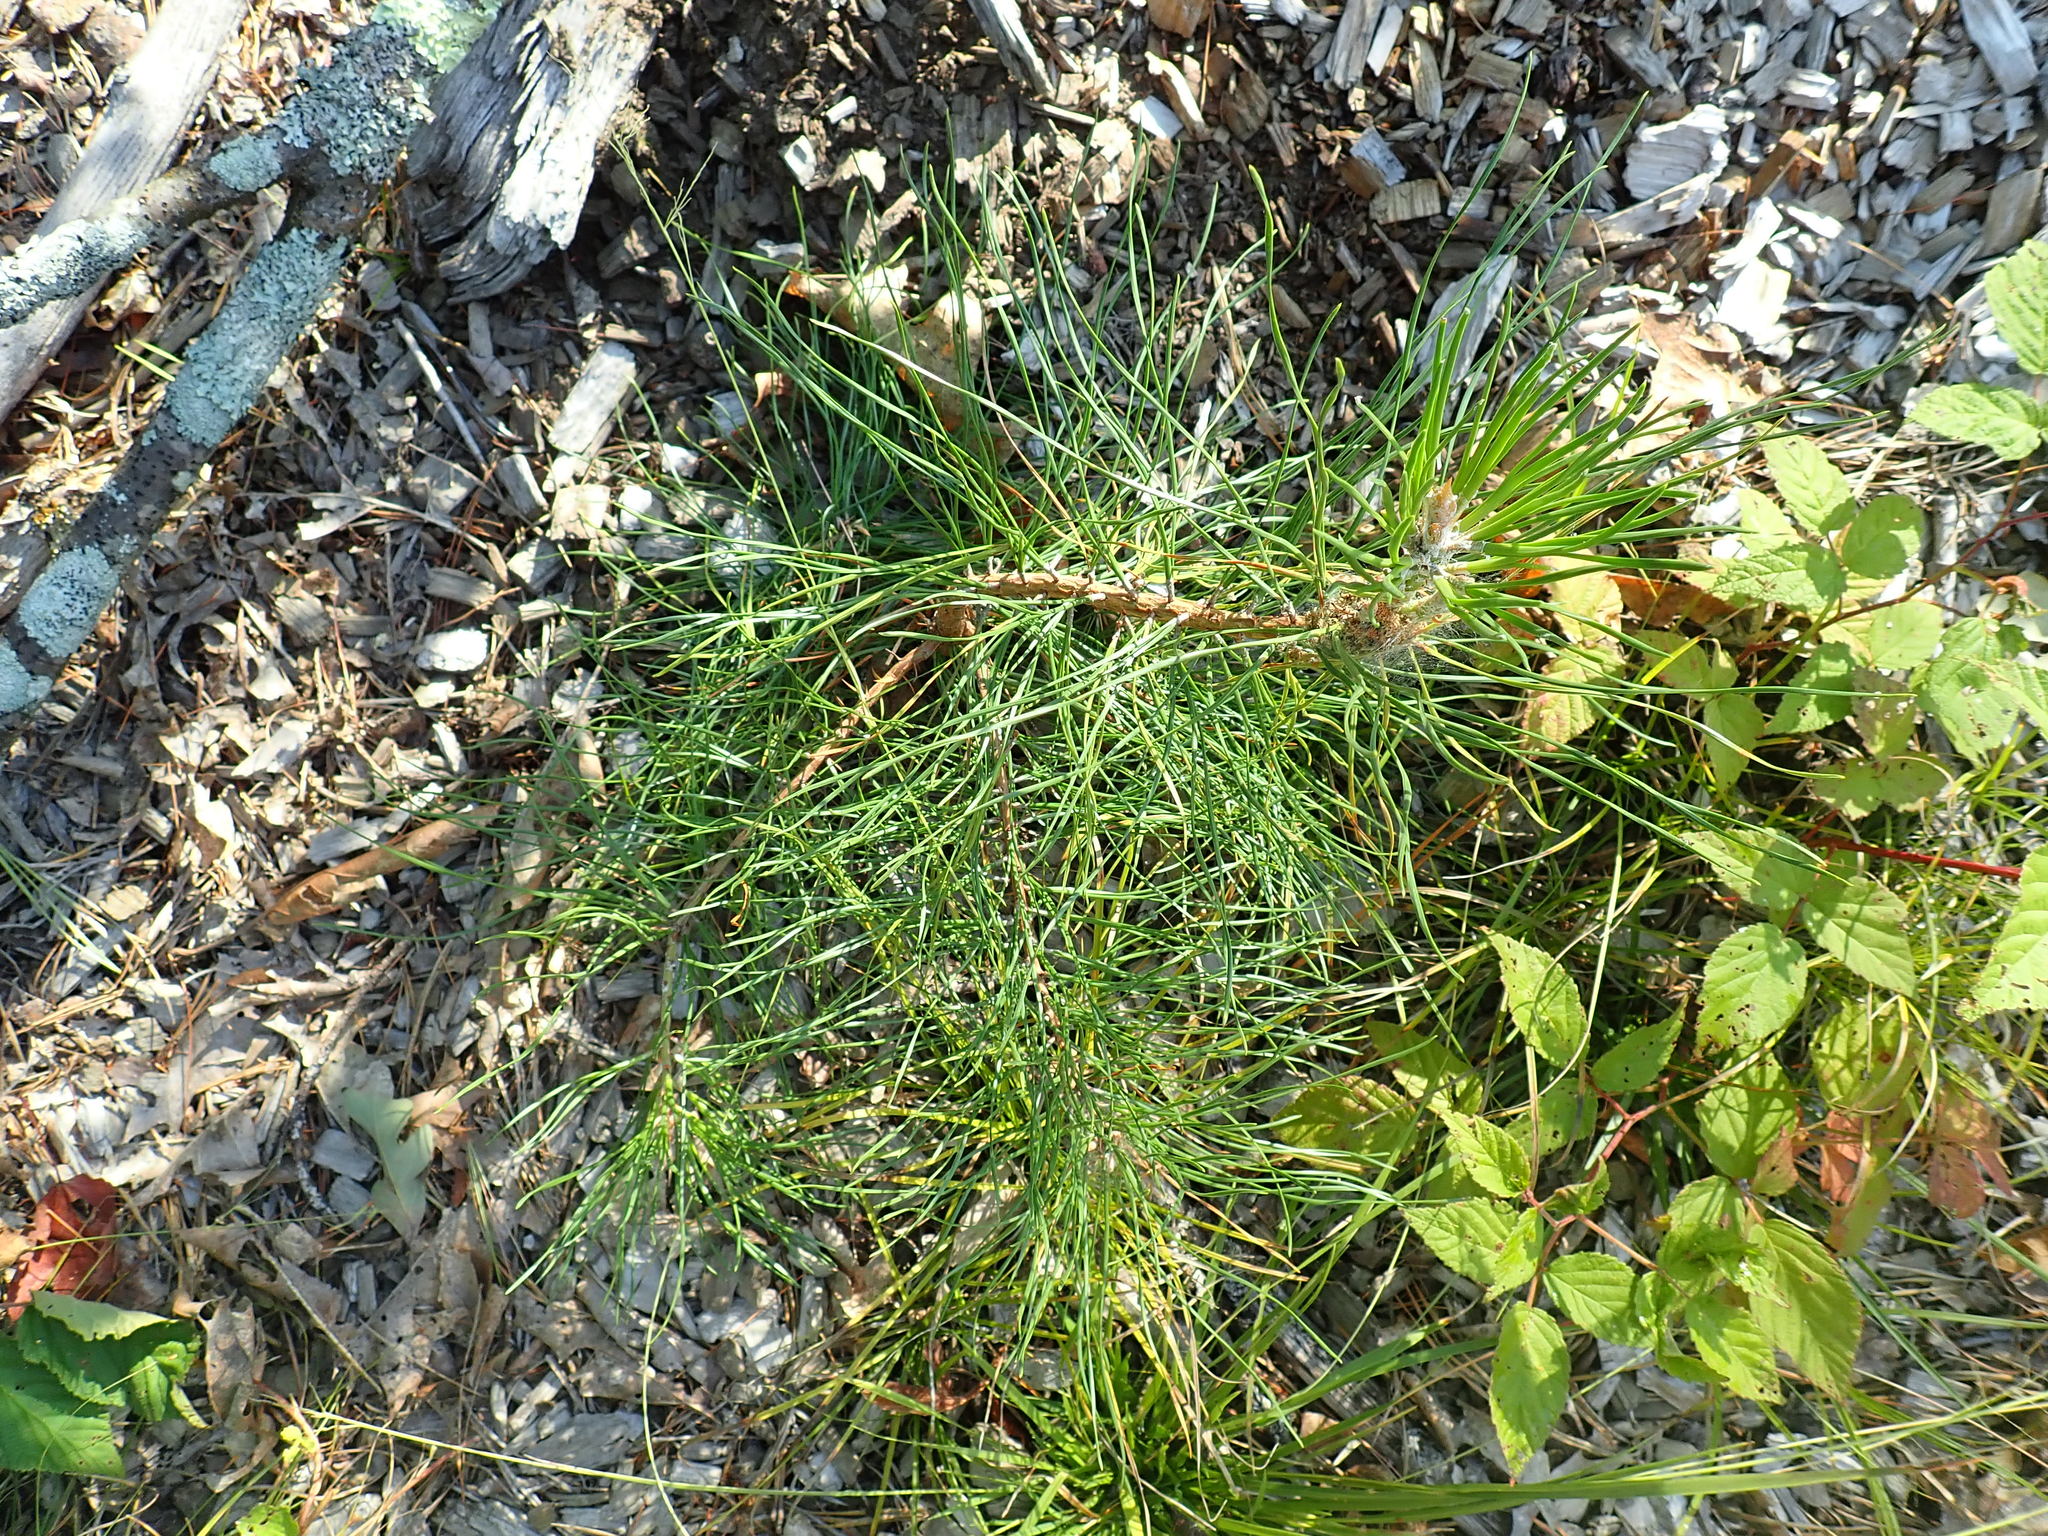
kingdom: Plantae
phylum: Tracheophyta
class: Pinopsida
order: Pinales
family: Pinaceae
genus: Pinus
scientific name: Pinus rigida
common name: Pitch pine
